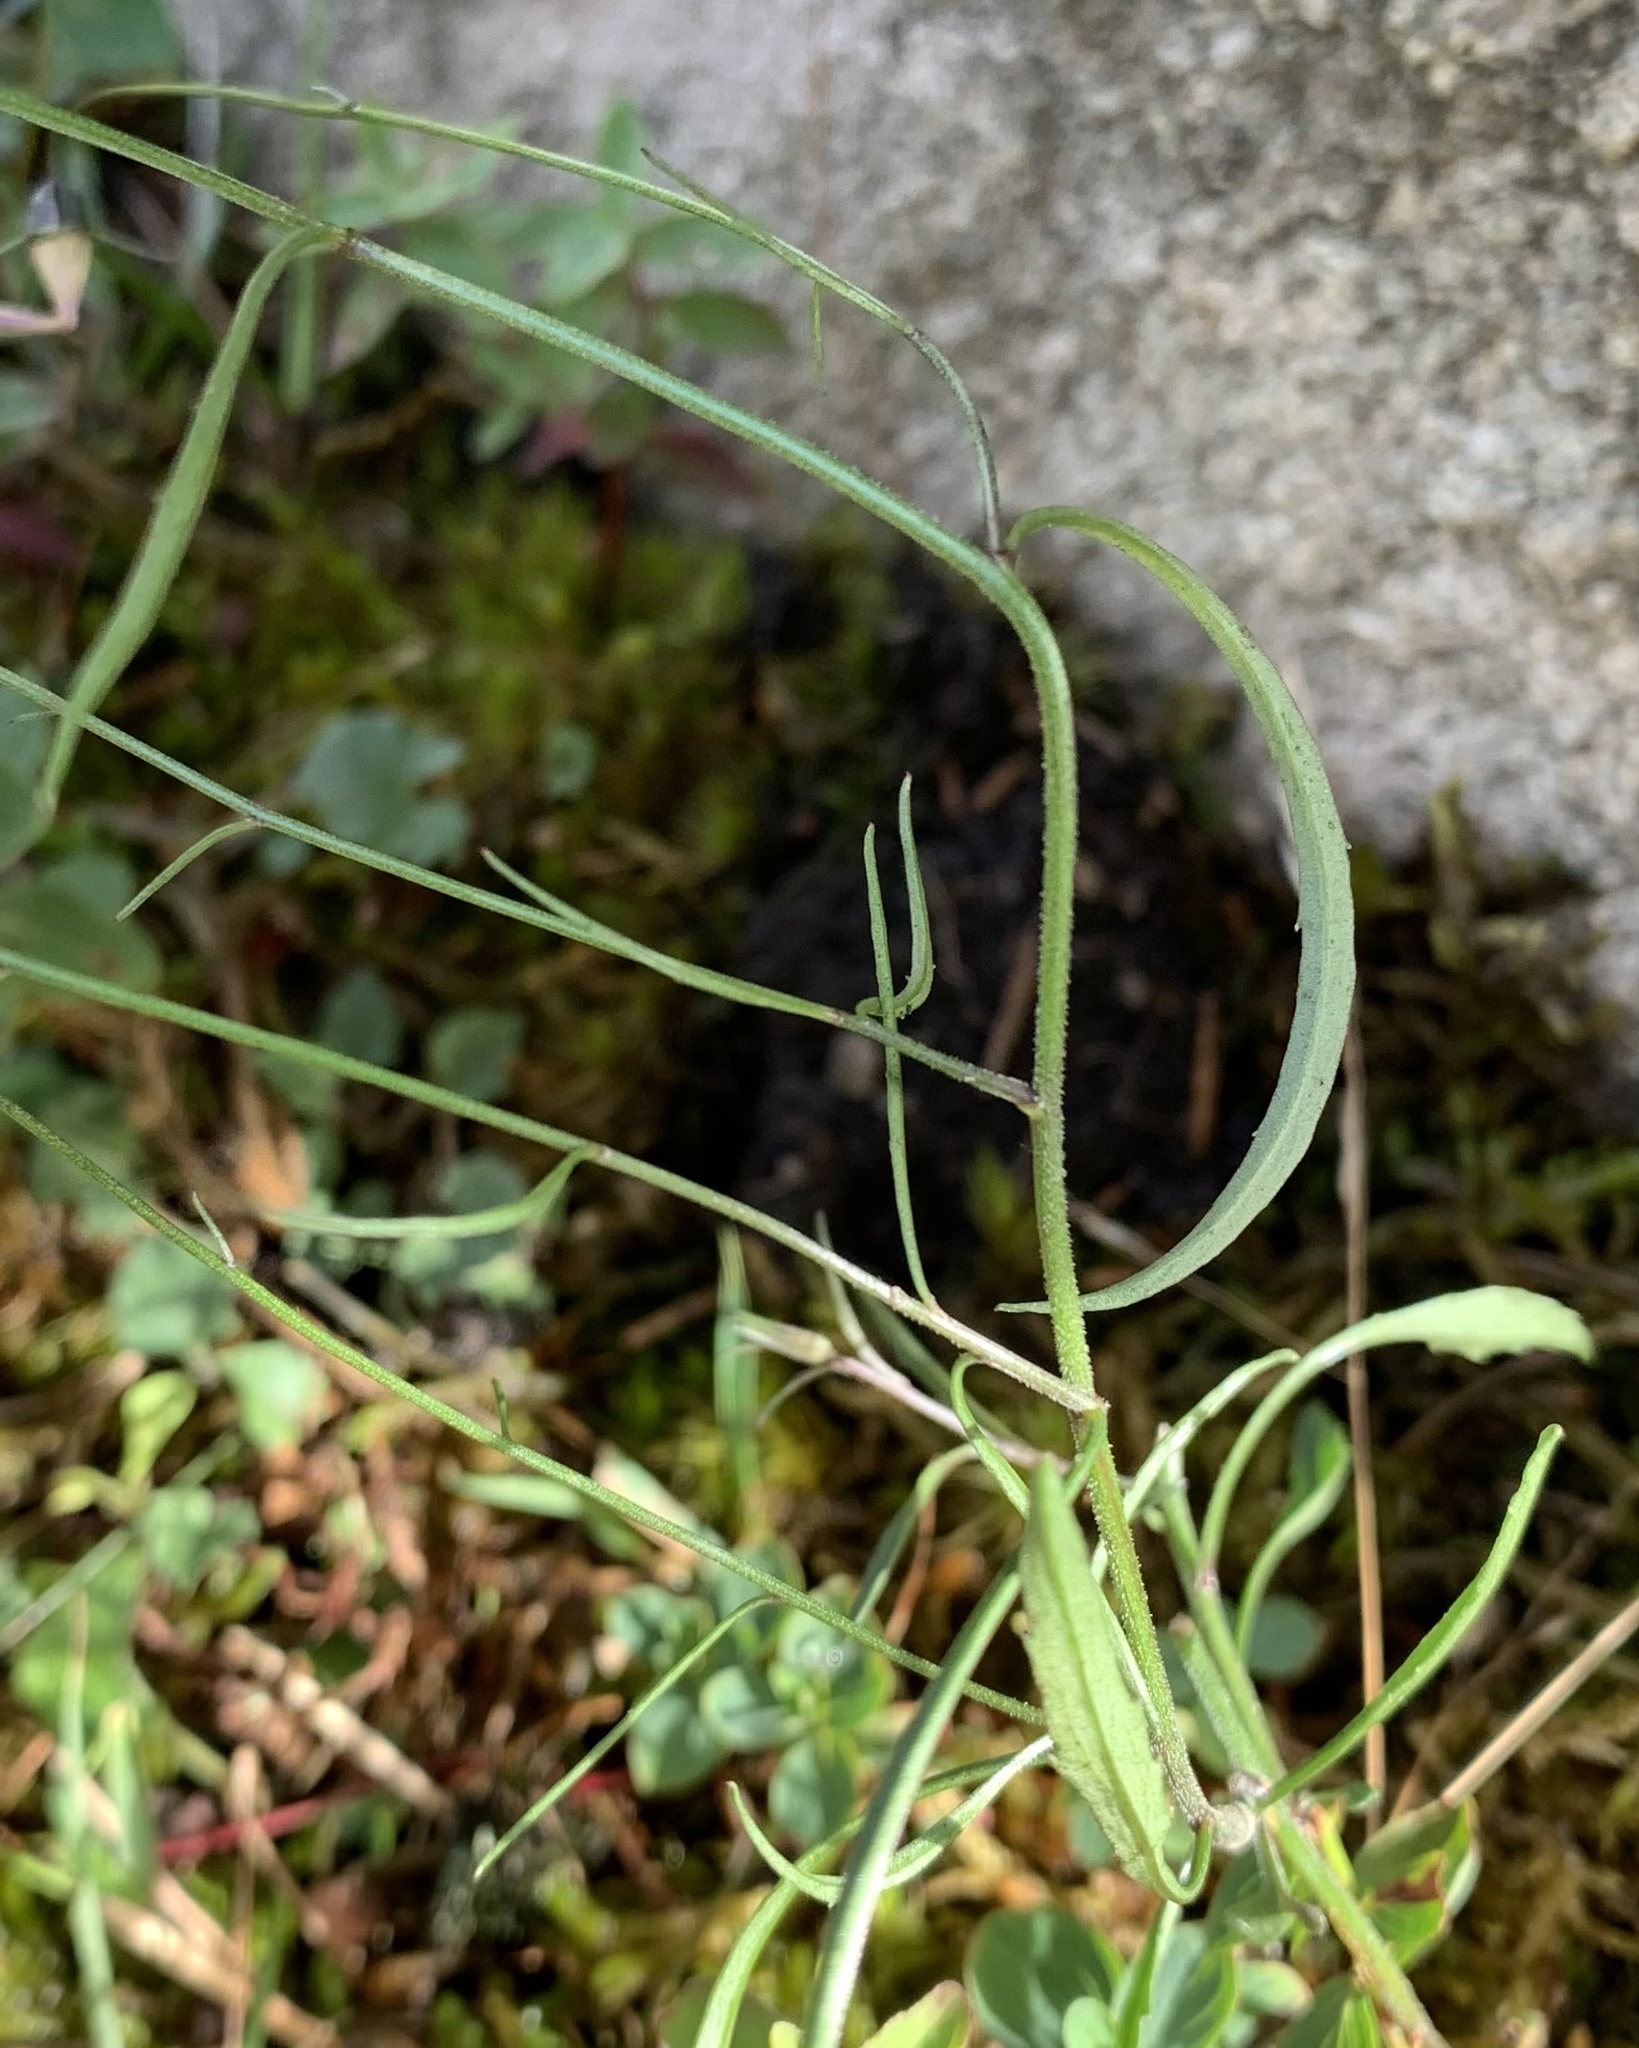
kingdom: Plantae
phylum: Tracheophyta
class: Magnoliopsida
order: Asterales
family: Campanulaceae
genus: Campanula
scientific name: Campanula rotundifolia
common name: Harebell
